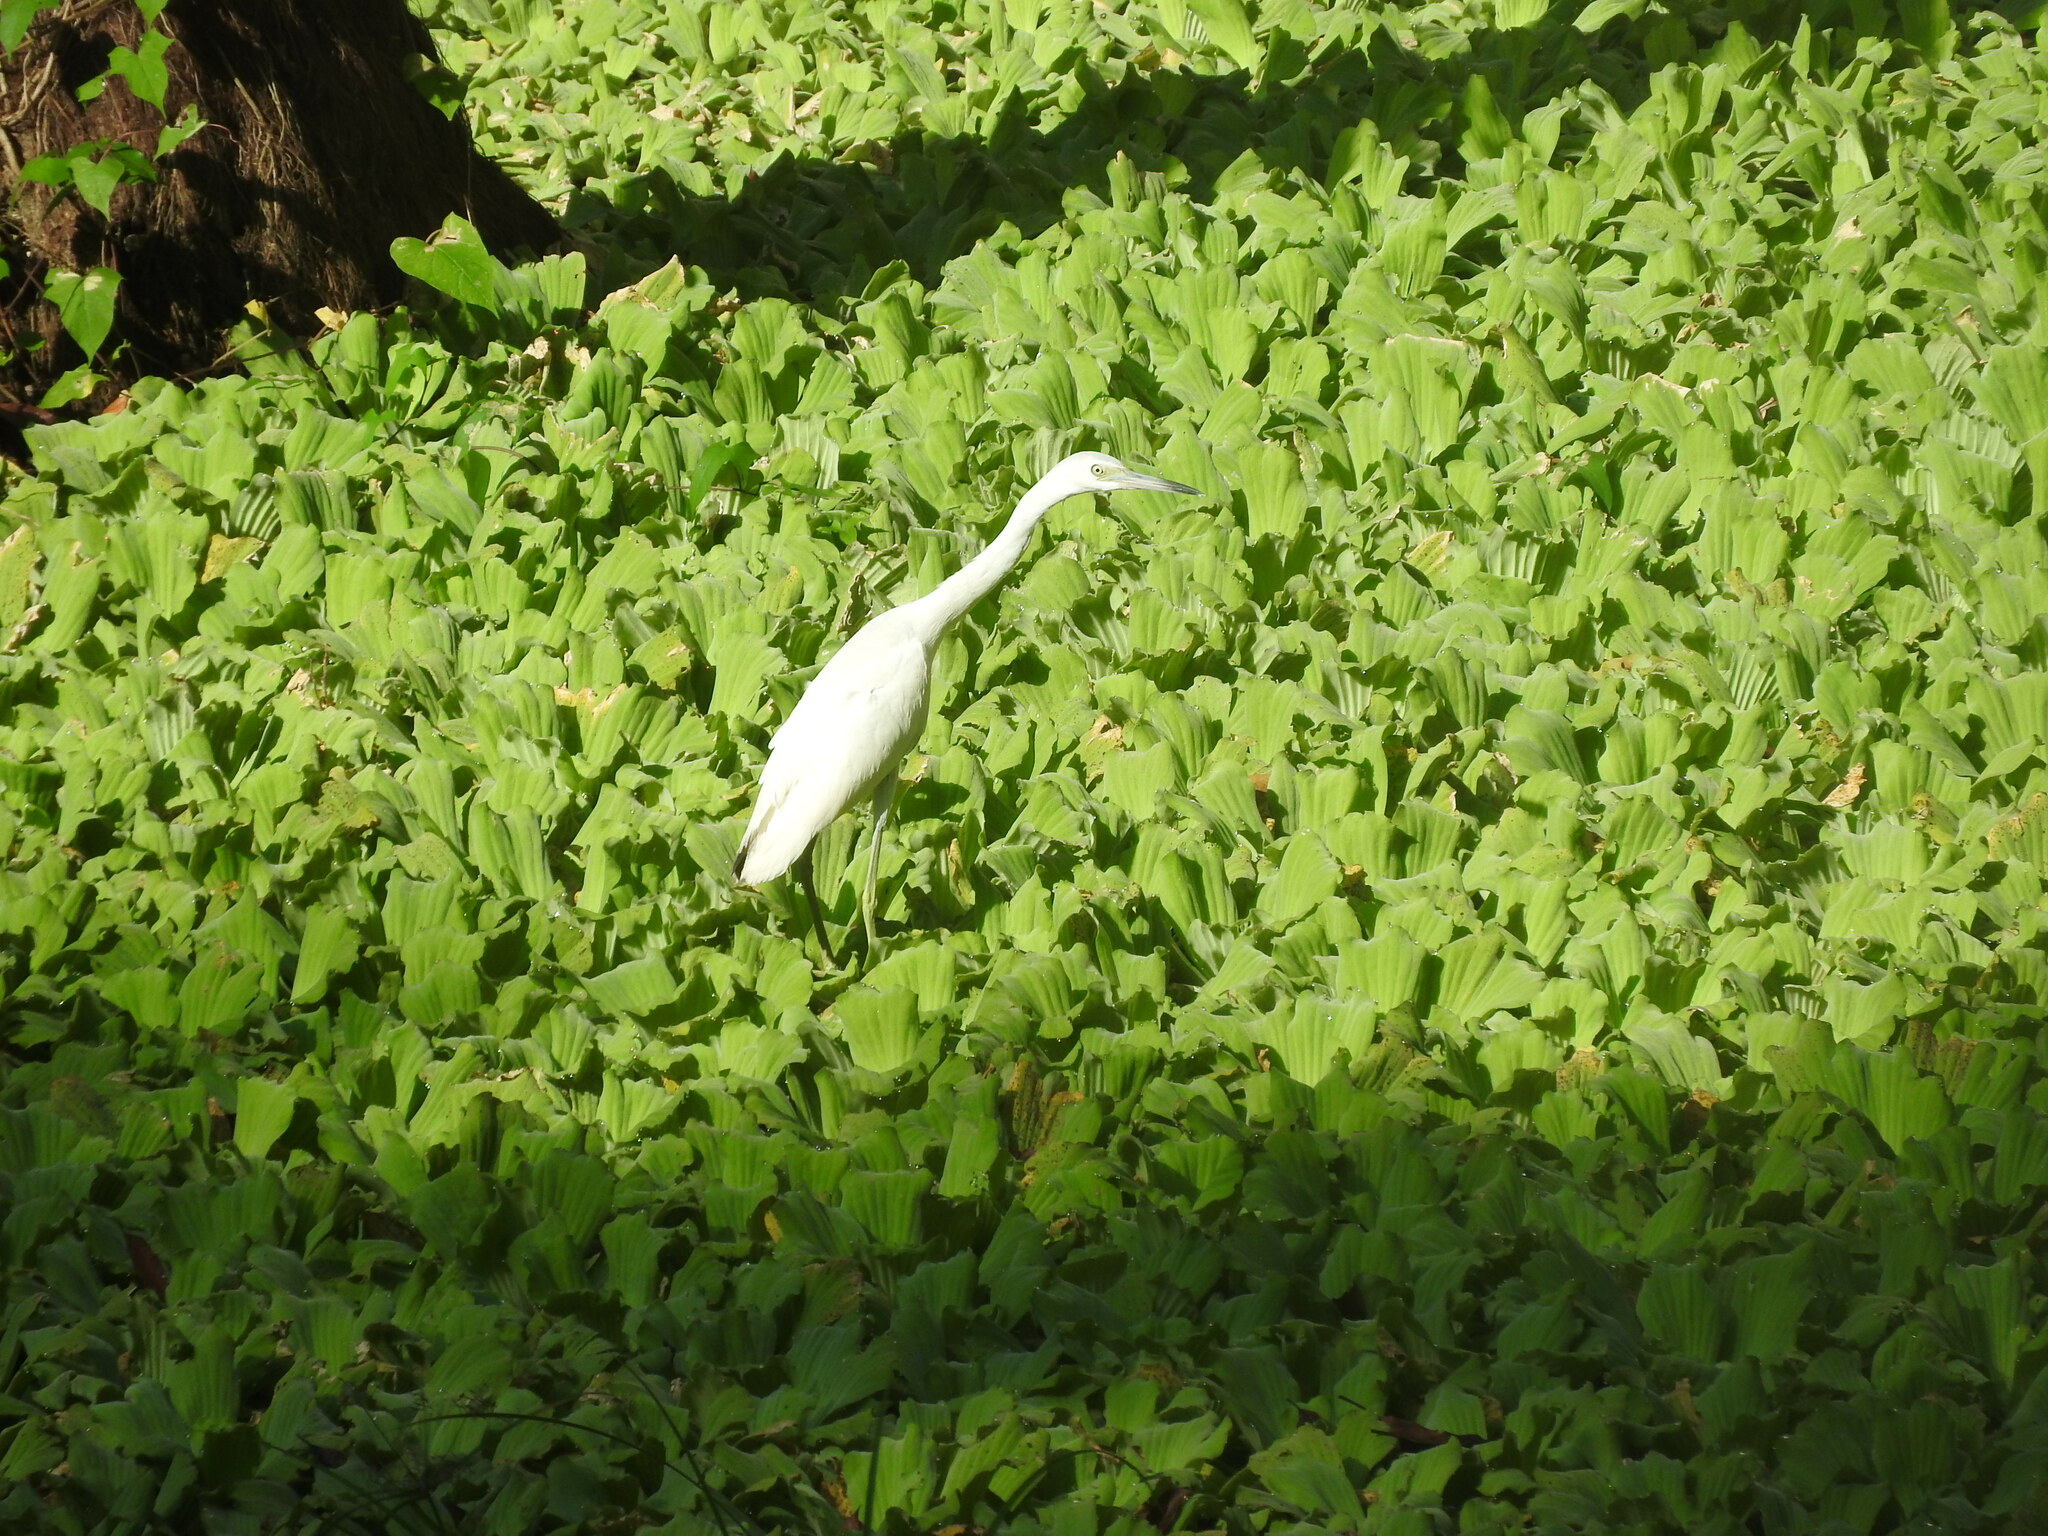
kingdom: Animalia
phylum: Chordata
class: Aves
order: Pelecaniformes
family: Ardeidae
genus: Egretta
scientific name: Egretta caerulea
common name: Little blue heron
